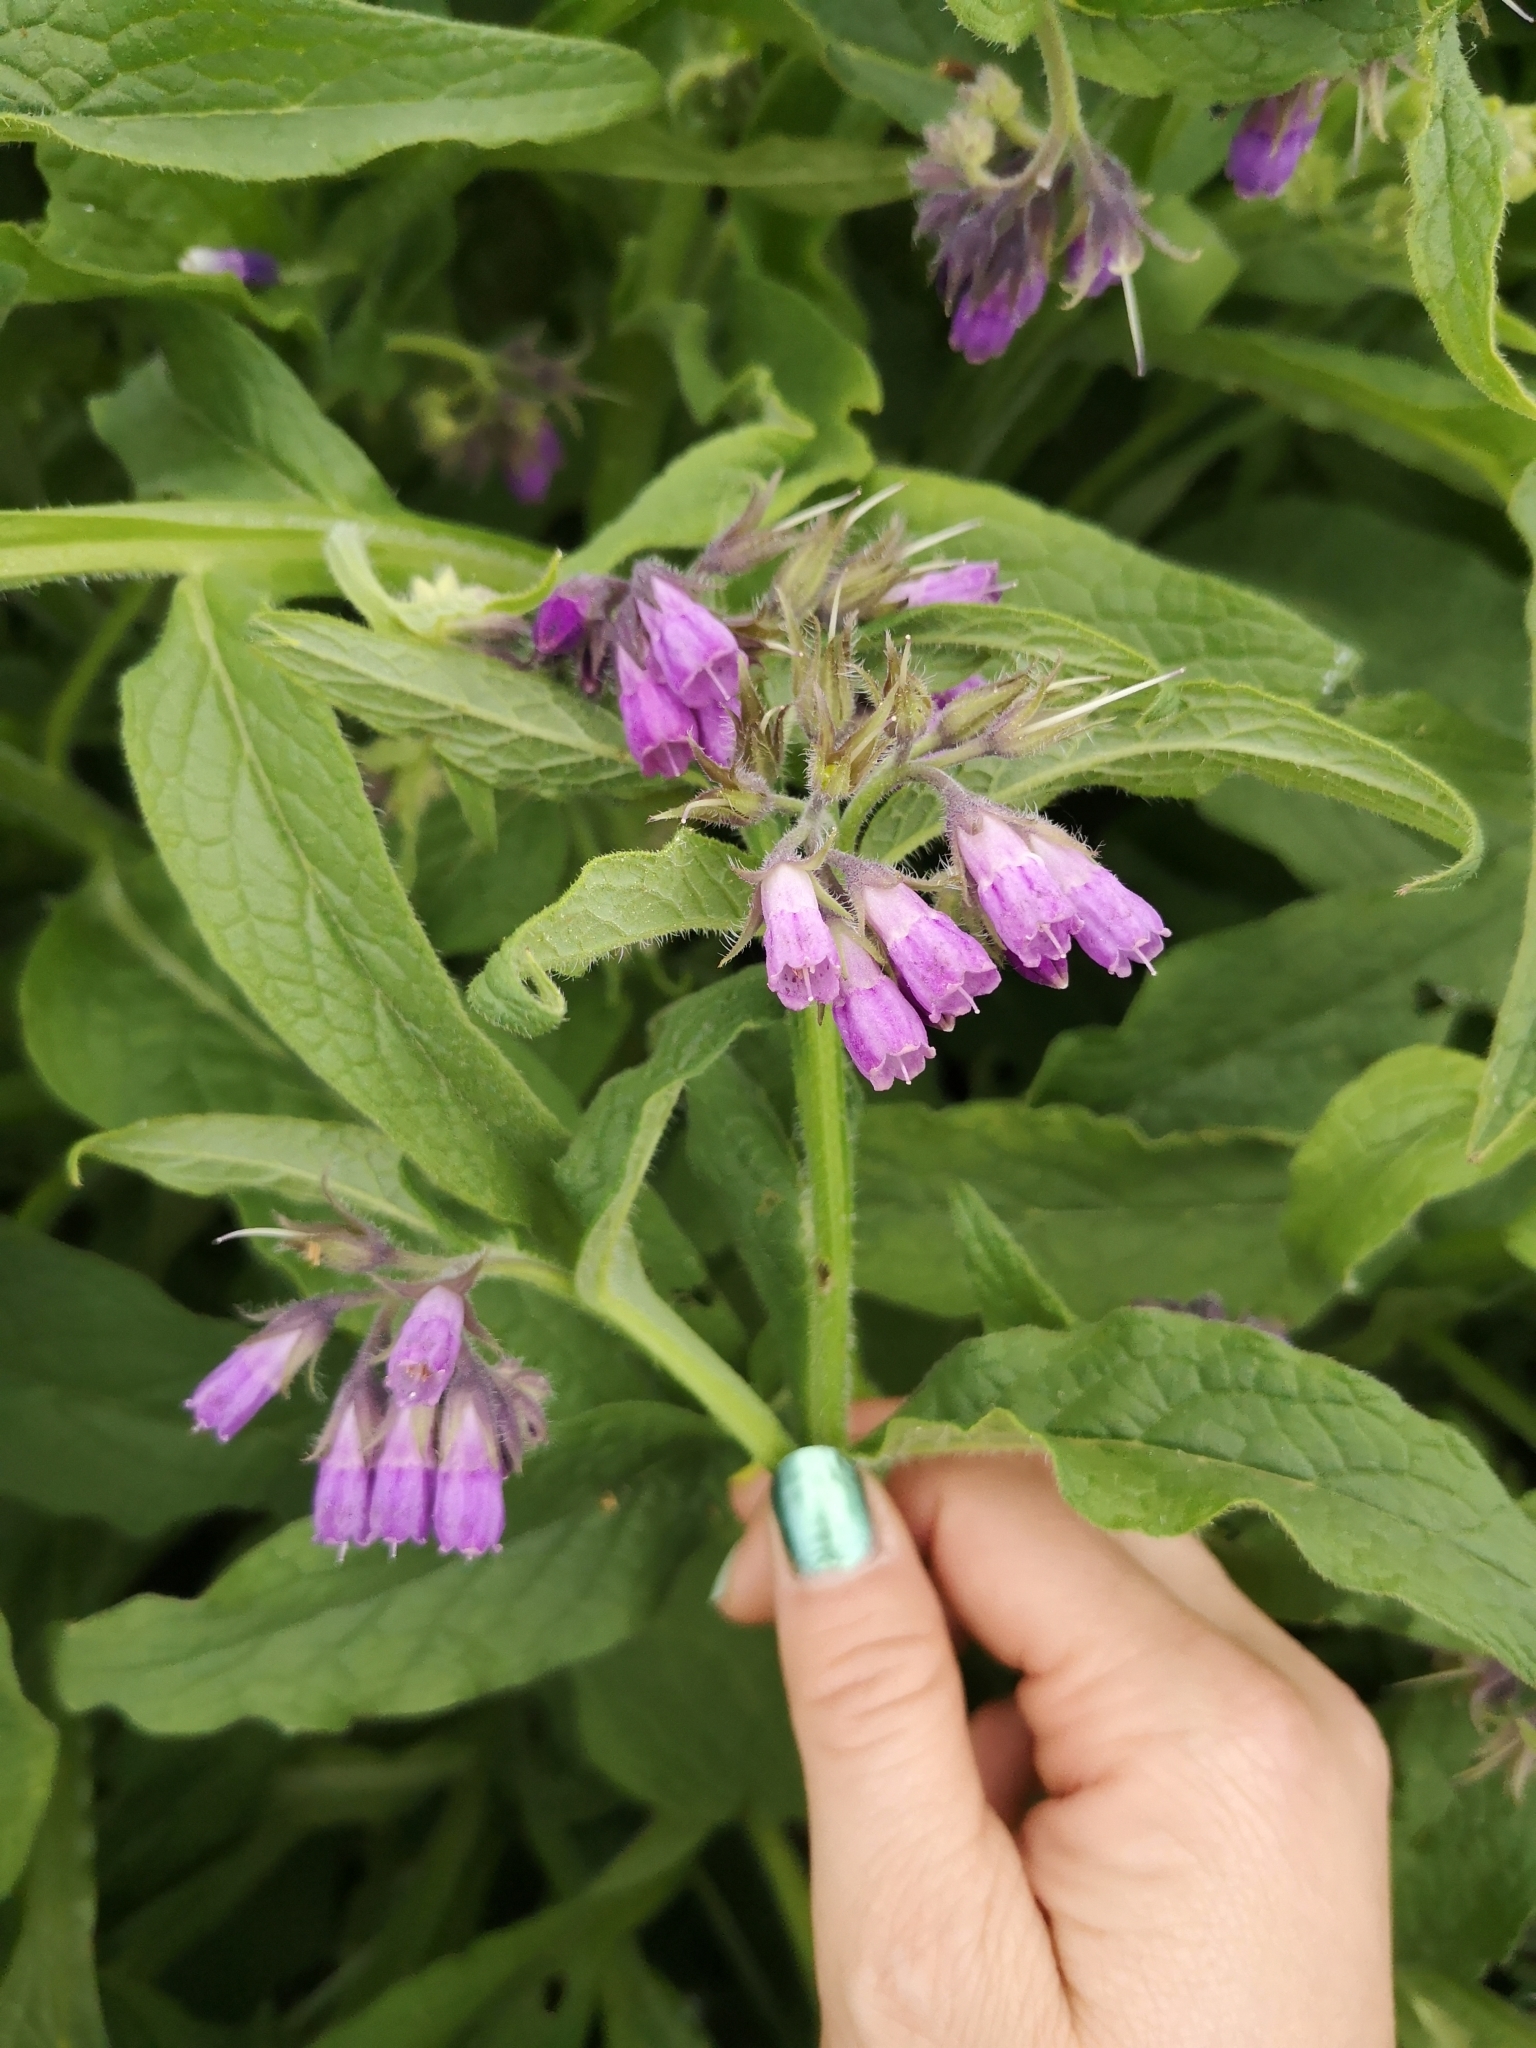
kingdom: Plantae
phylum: Tracheophyta
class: Magnoliopsida
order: Boraginales
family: Boraginaceae
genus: Symphytum
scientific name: Symphytum officinale
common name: Common comfrey
